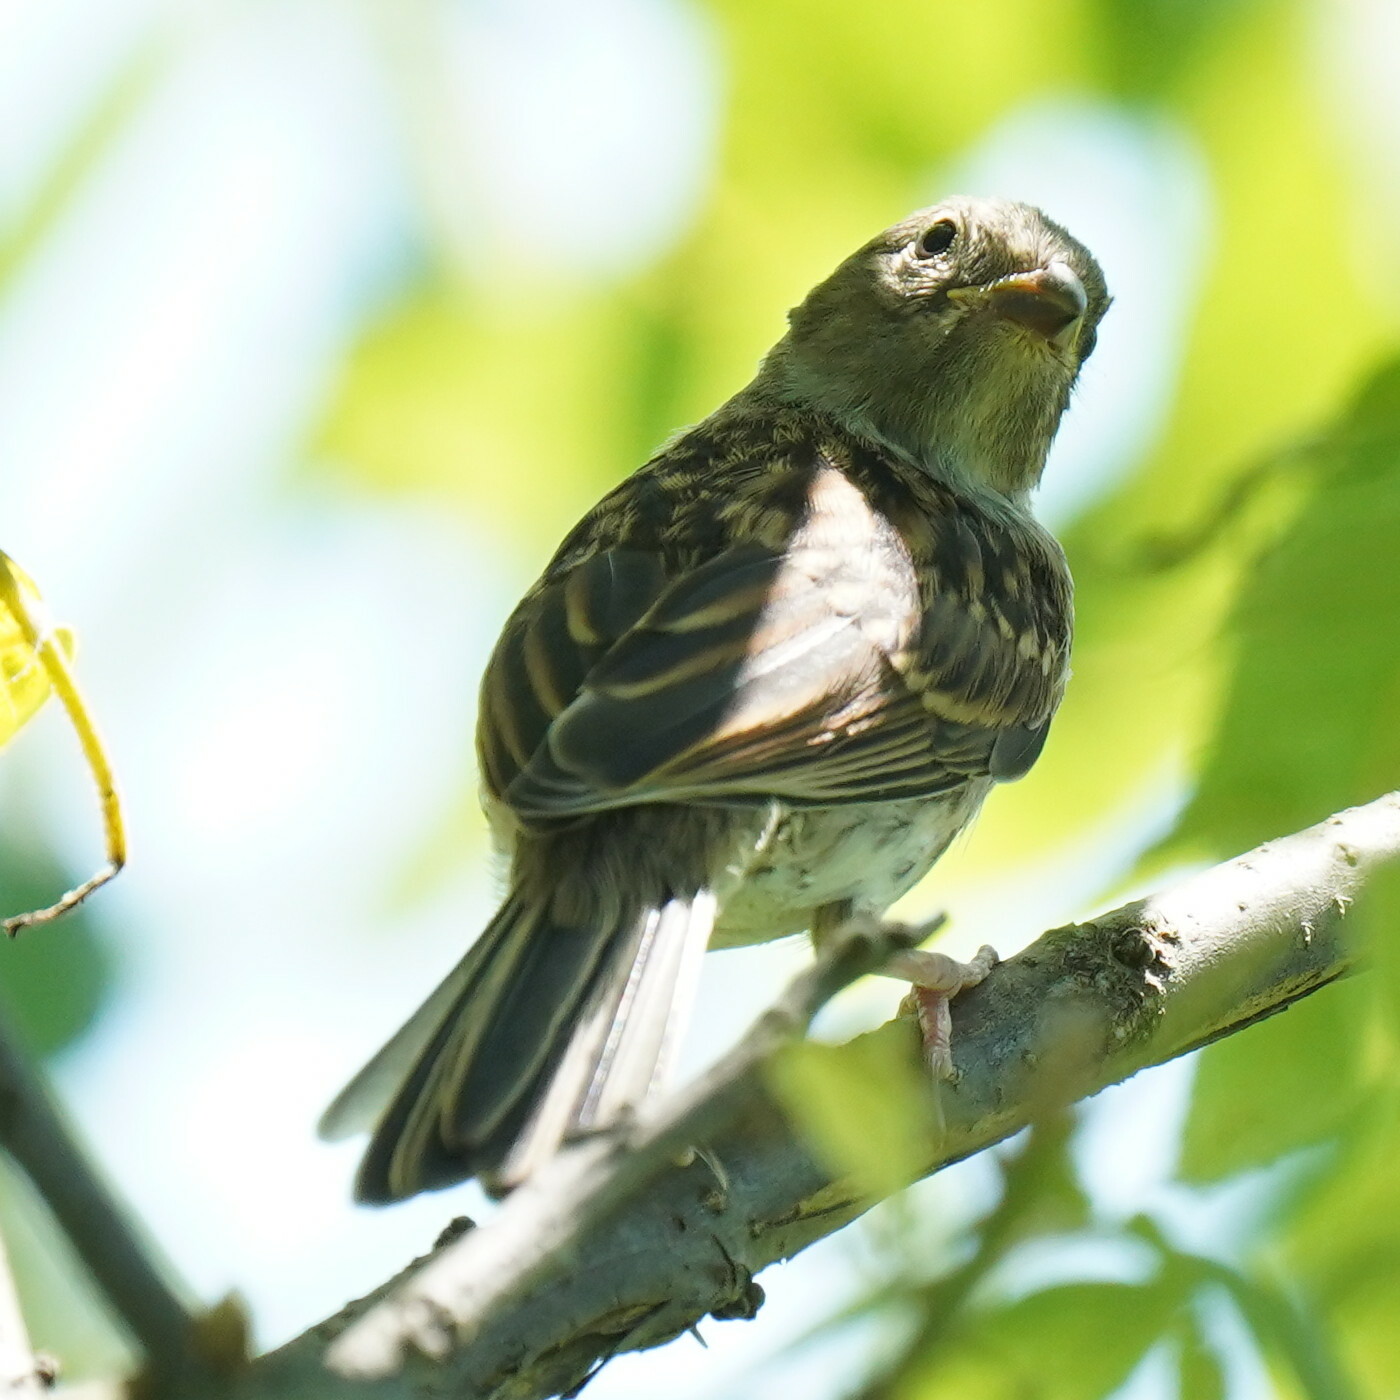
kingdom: Animalia
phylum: Chordata
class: Aves
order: Passeriformes
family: Passerellidae
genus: Spizella
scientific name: Spizella pusilla
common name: Field sparrow
